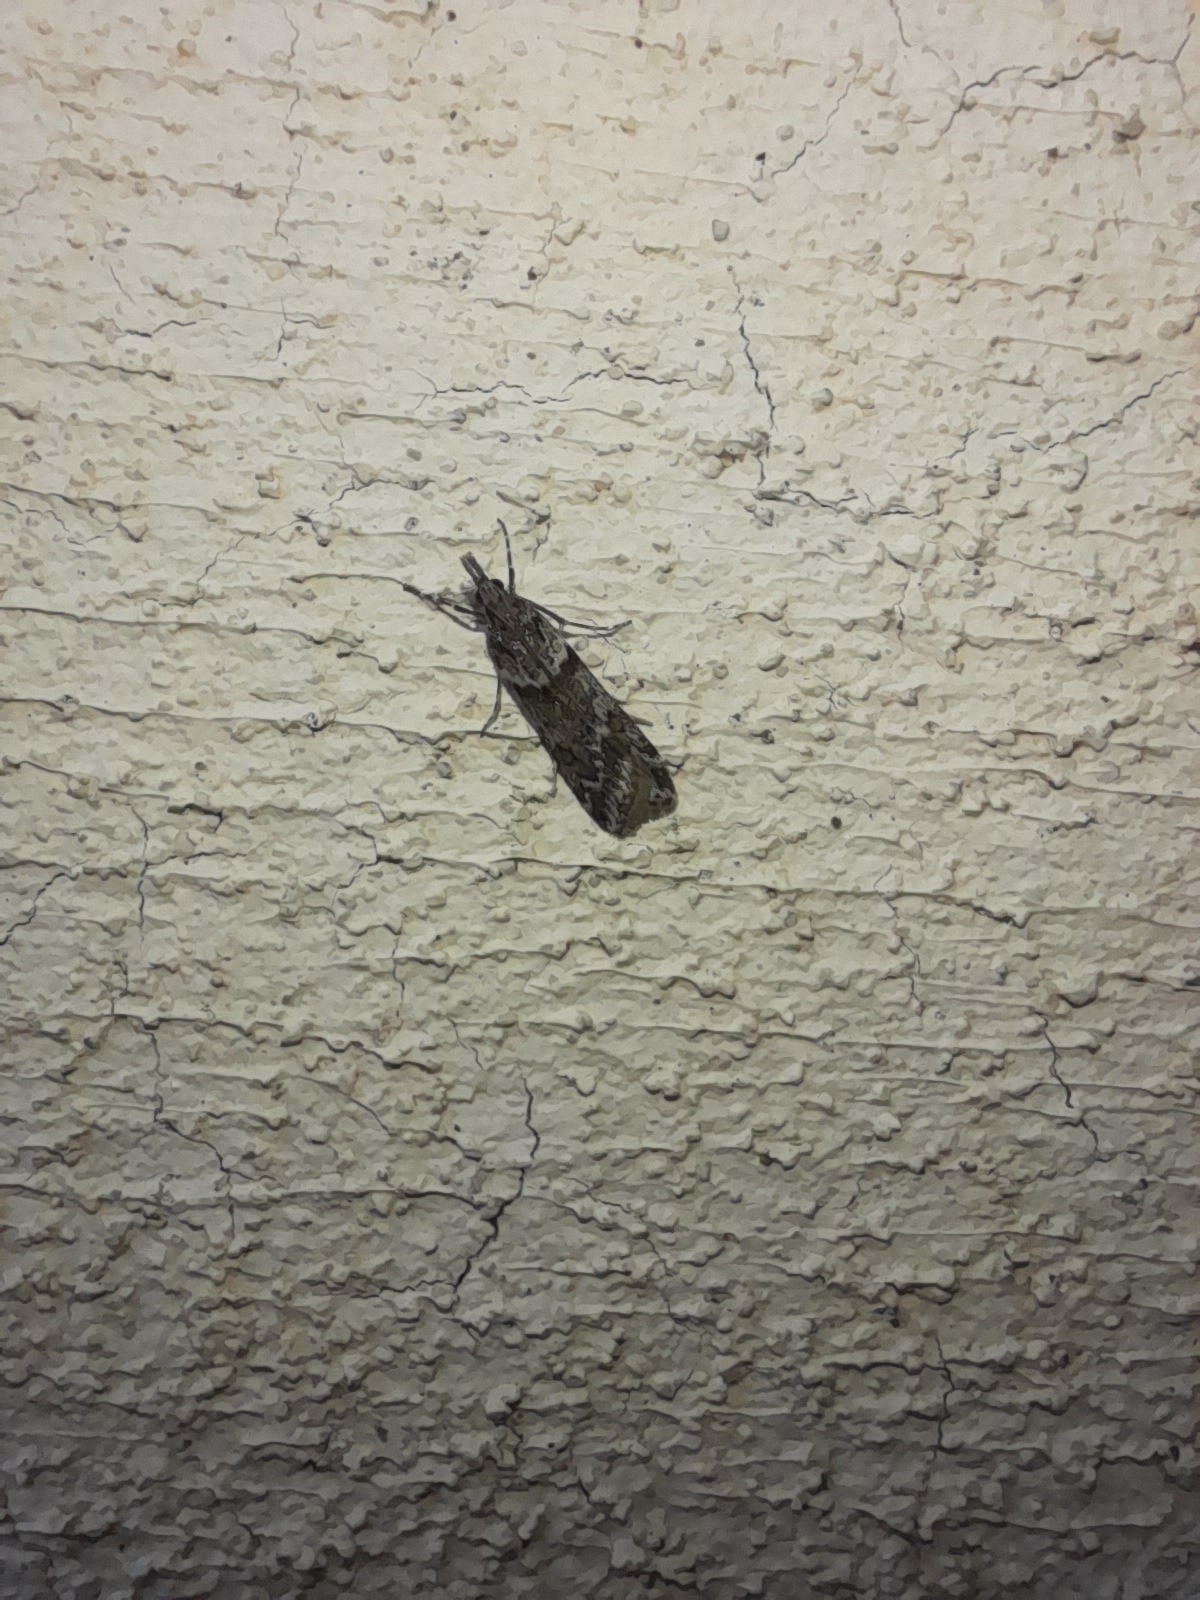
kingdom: Animalia
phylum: Arthropoda
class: Insecta
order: Lepidoptera
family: Crambidae
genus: Eudonia
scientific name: Eudonia angustea
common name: Narrow-winged grey
